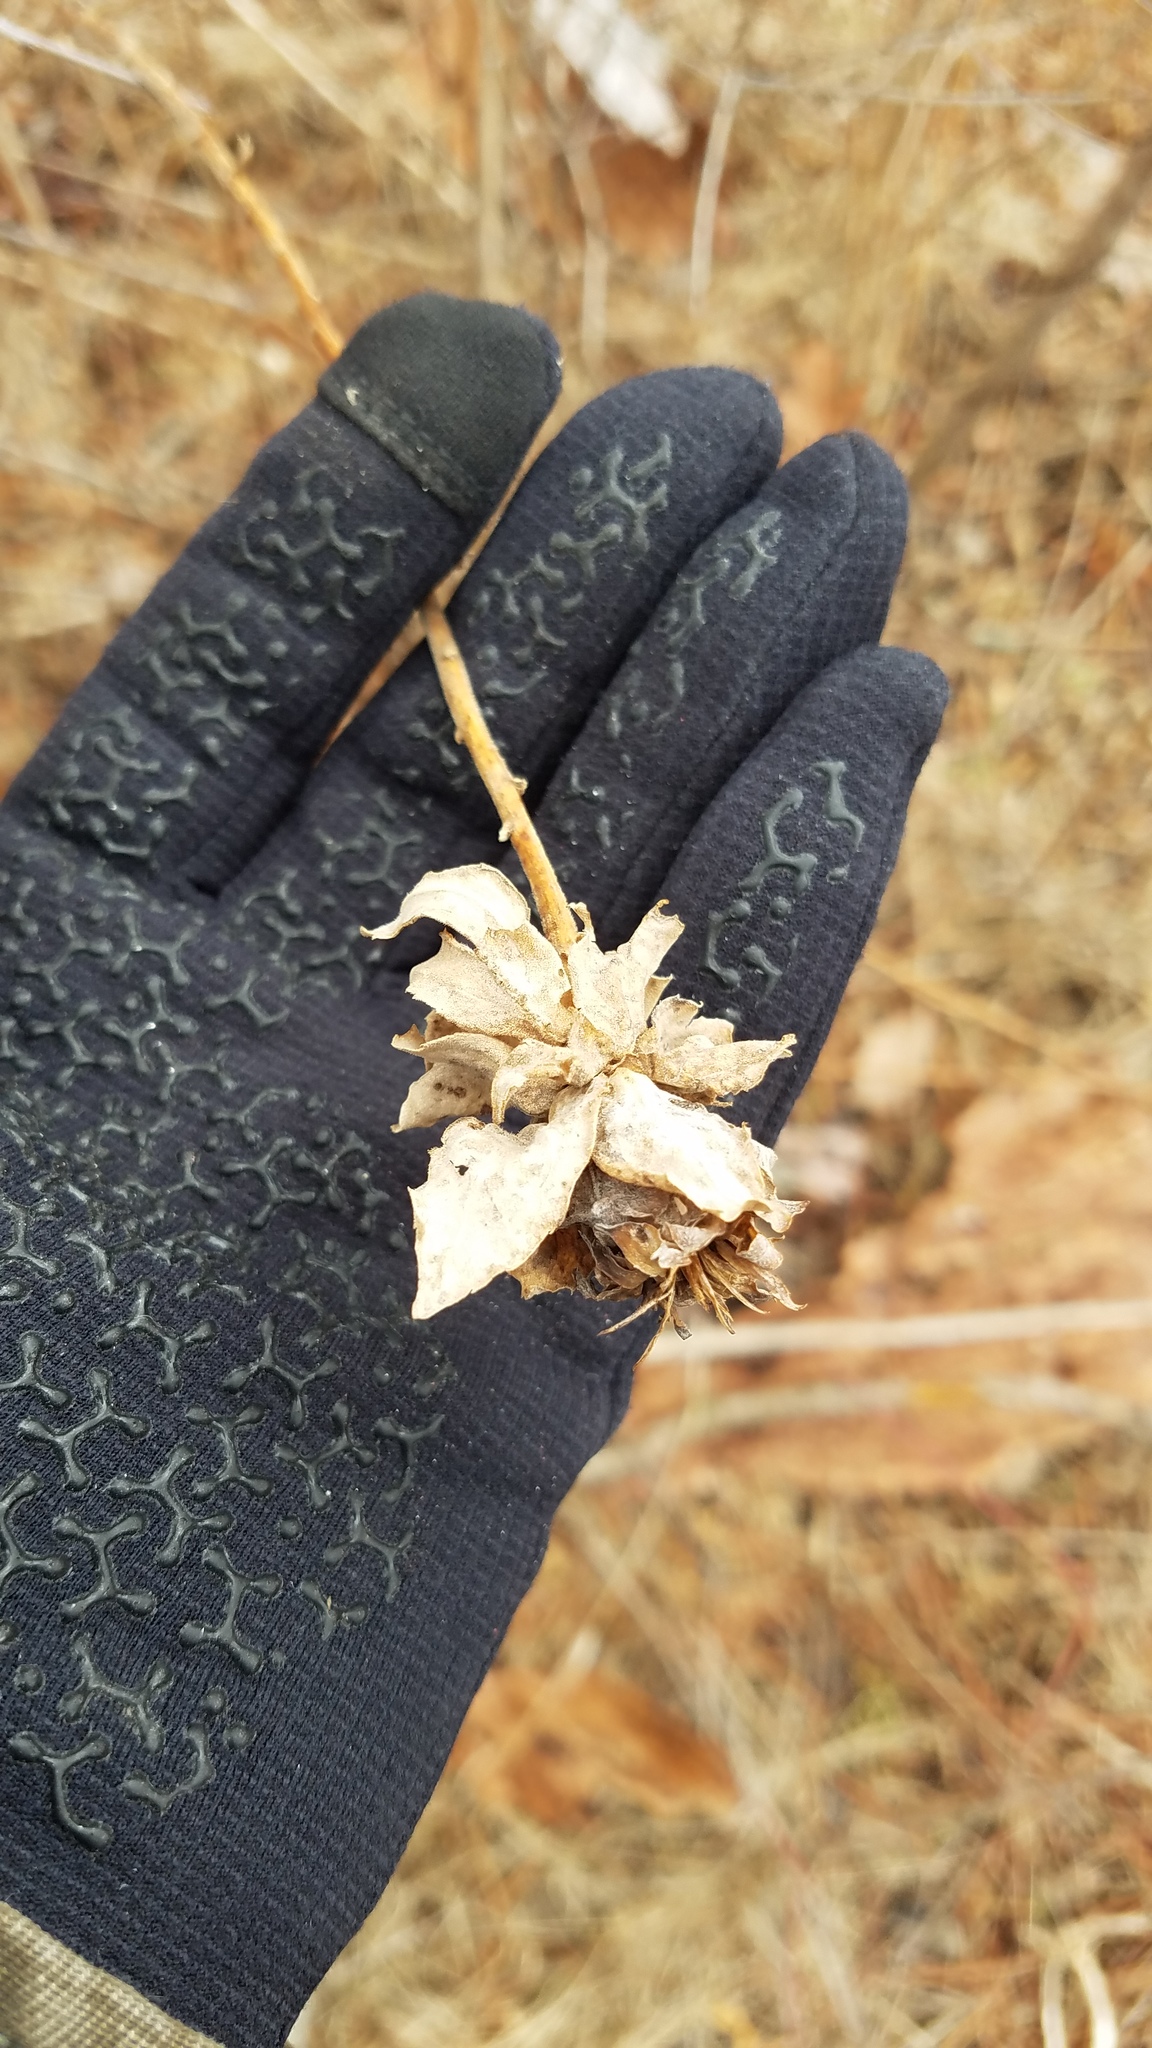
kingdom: Animalia
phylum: Arthropoda
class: Insecta
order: Diptera
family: Cecidomyiidae
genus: Rhopalomyia
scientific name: Rhopalomyia solidaginis
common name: Goldenrod bunch gall midge
